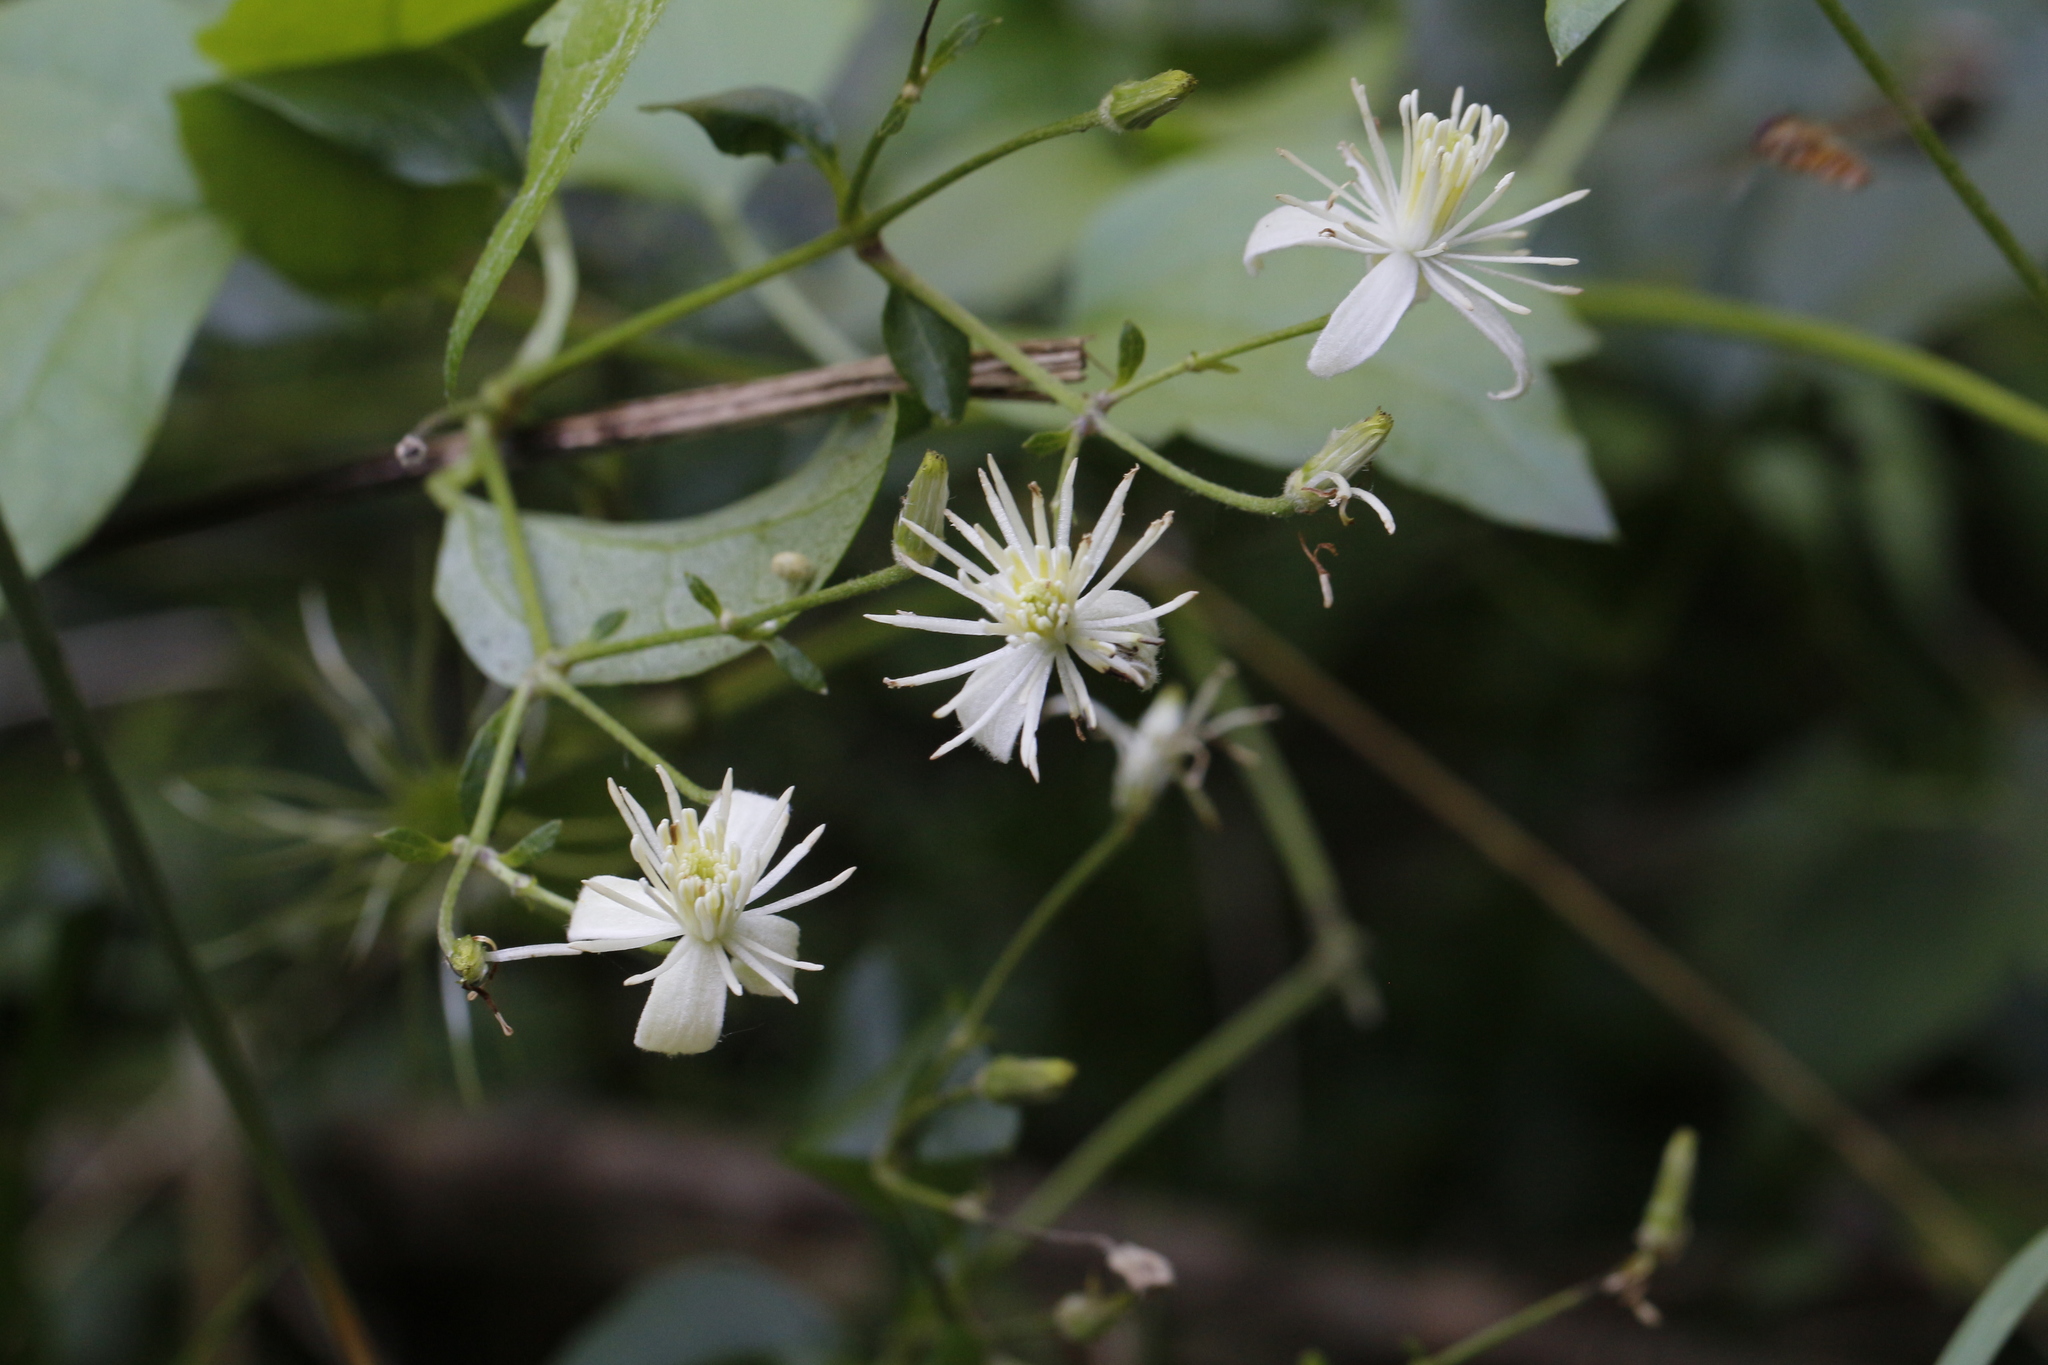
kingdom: Plantae
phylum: Tracheophyta
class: Magnoliopsida
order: Ranunculales
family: Ranunculaceae
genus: Clematis
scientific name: Clematis vitalba
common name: Evergreen clematis
